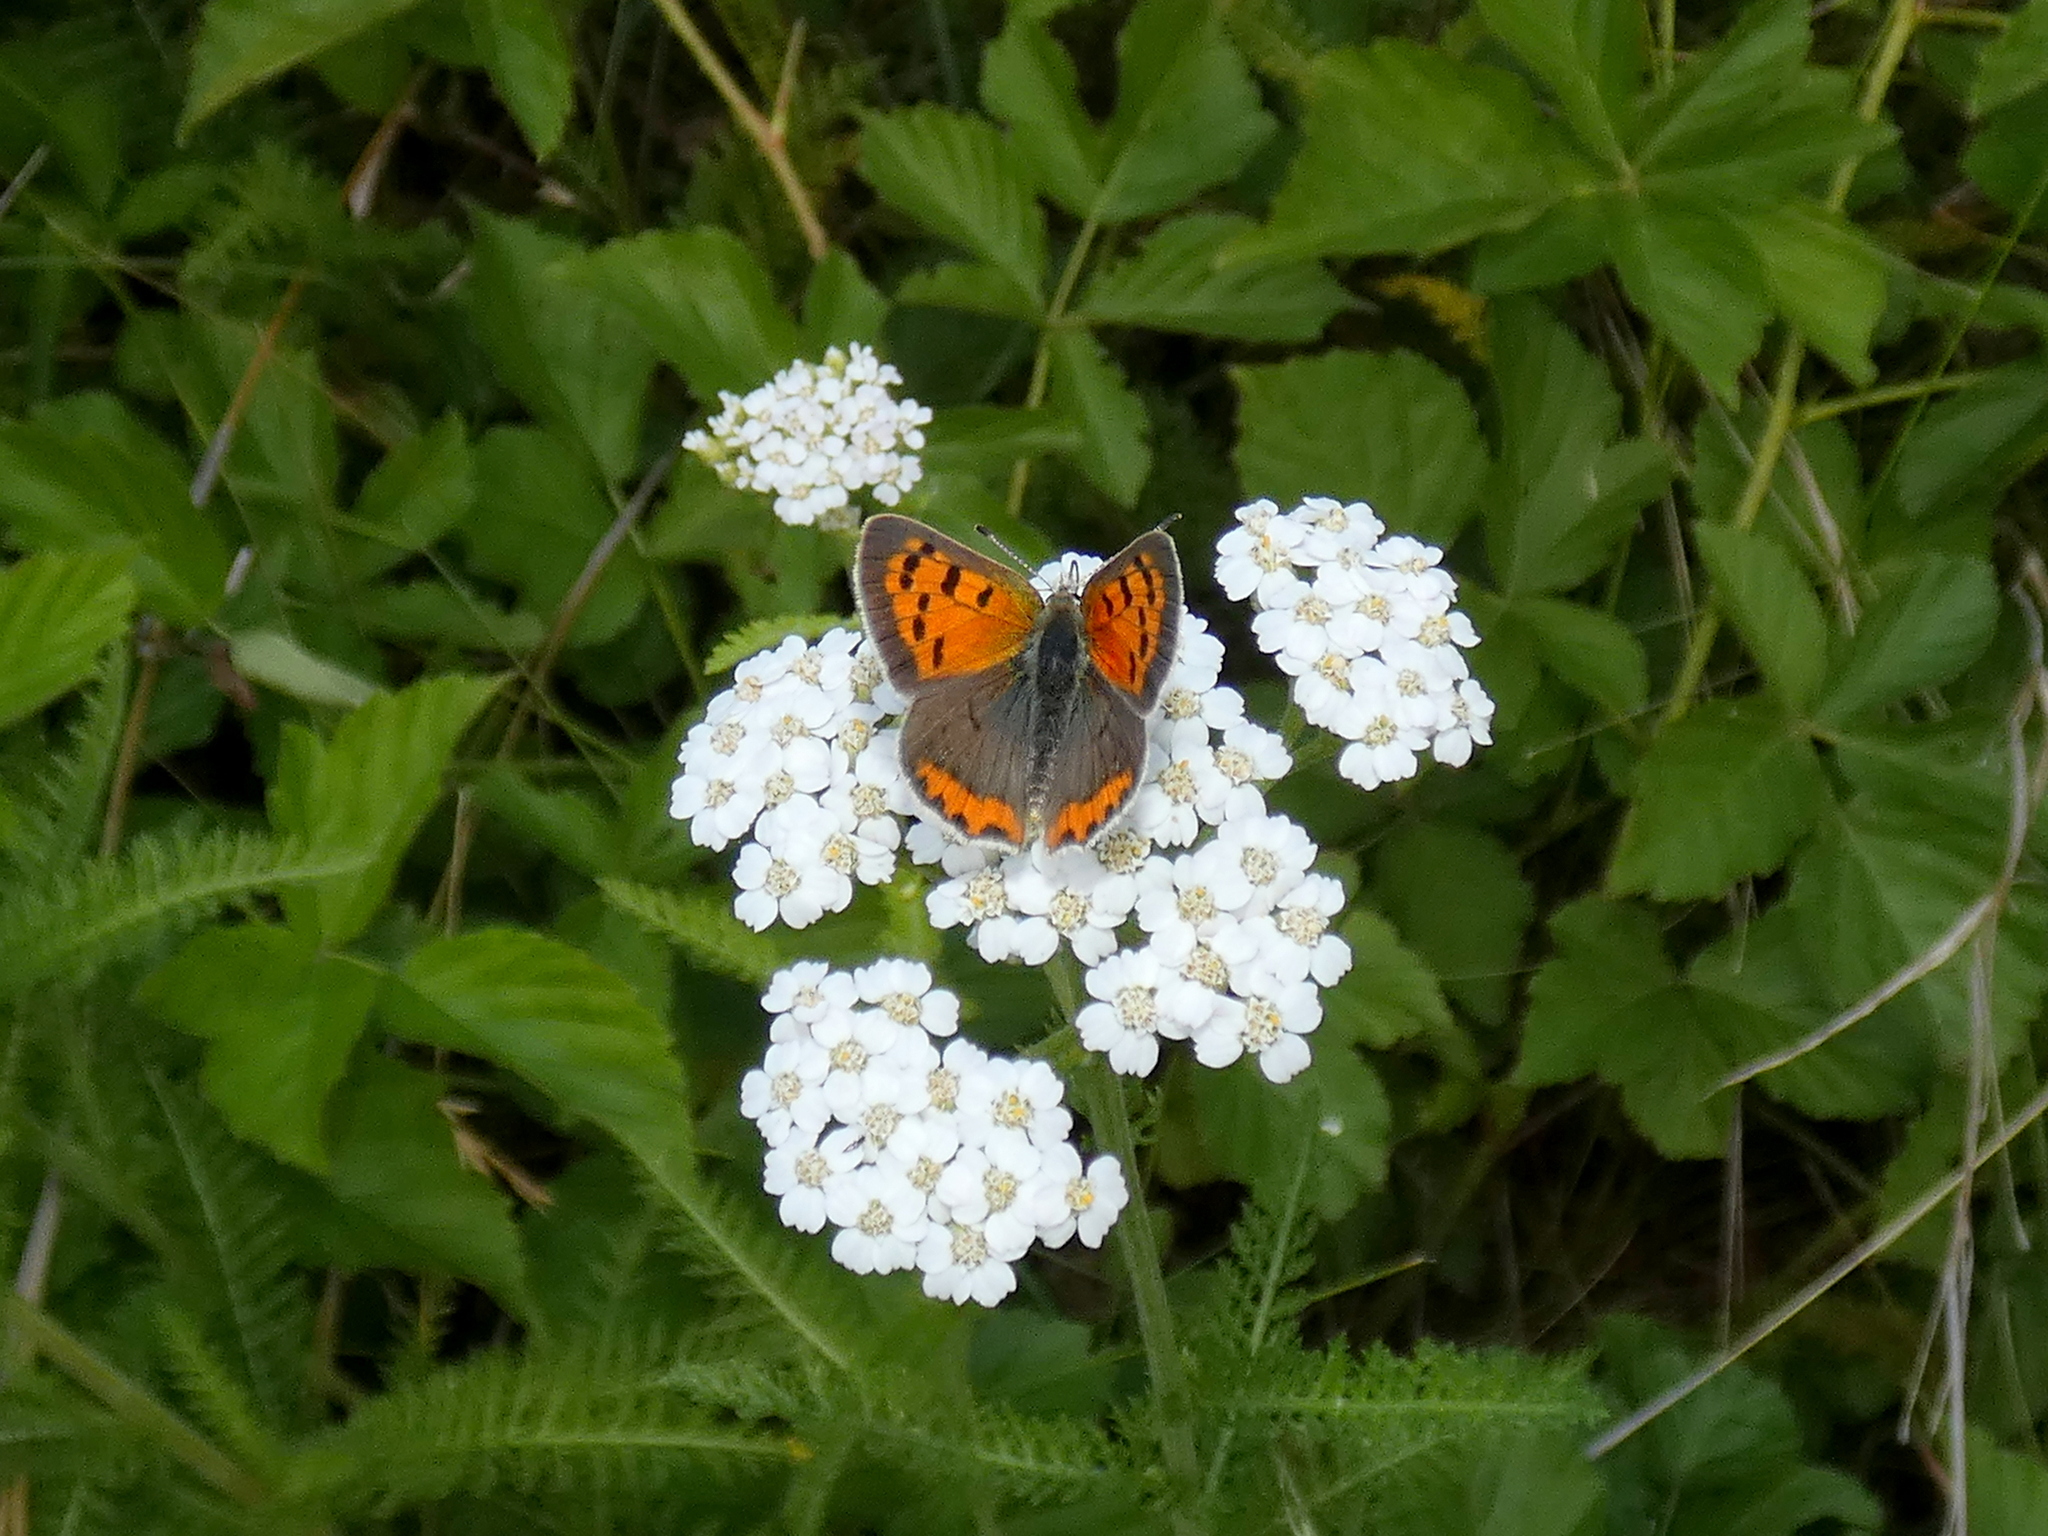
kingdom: Animalia
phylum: Arthropoda
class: Insecta
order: Lepidoptera
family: Lycaenidae
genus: Lycaena
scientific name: Lycaena hypophlaeas
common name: American copper
